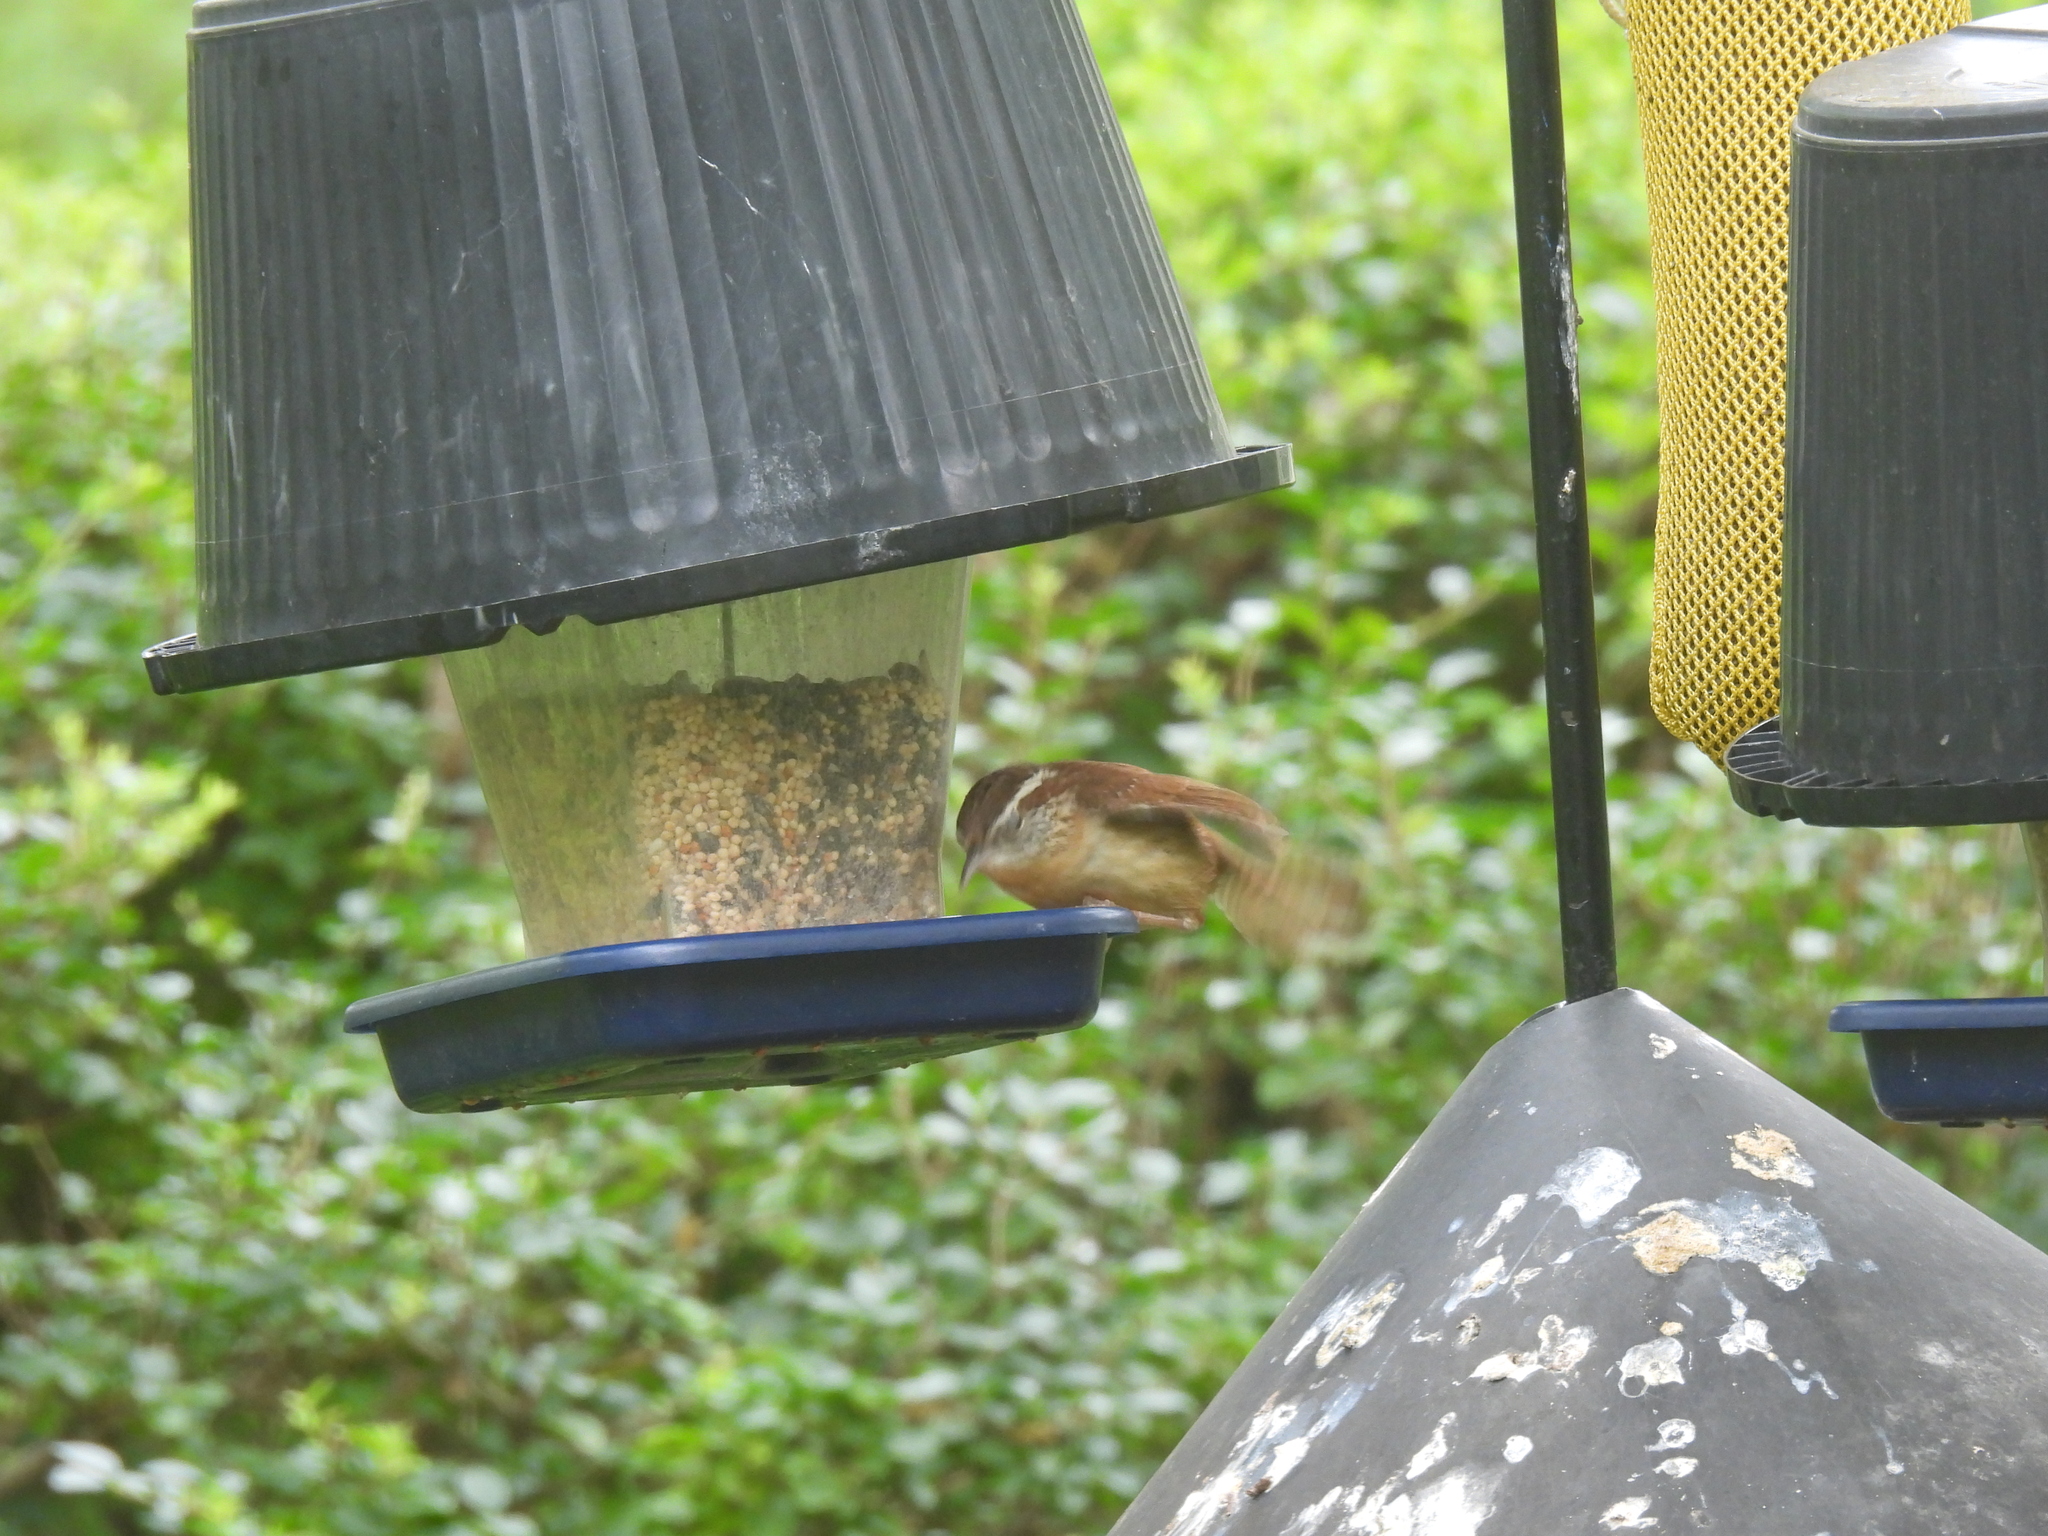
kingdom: Animalia
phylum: Chordata
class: Aves
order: Passeriformes
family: Troglodytidae
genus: Thryothorus
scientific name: Thryothorus ludovicianus
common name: Carolina wren
